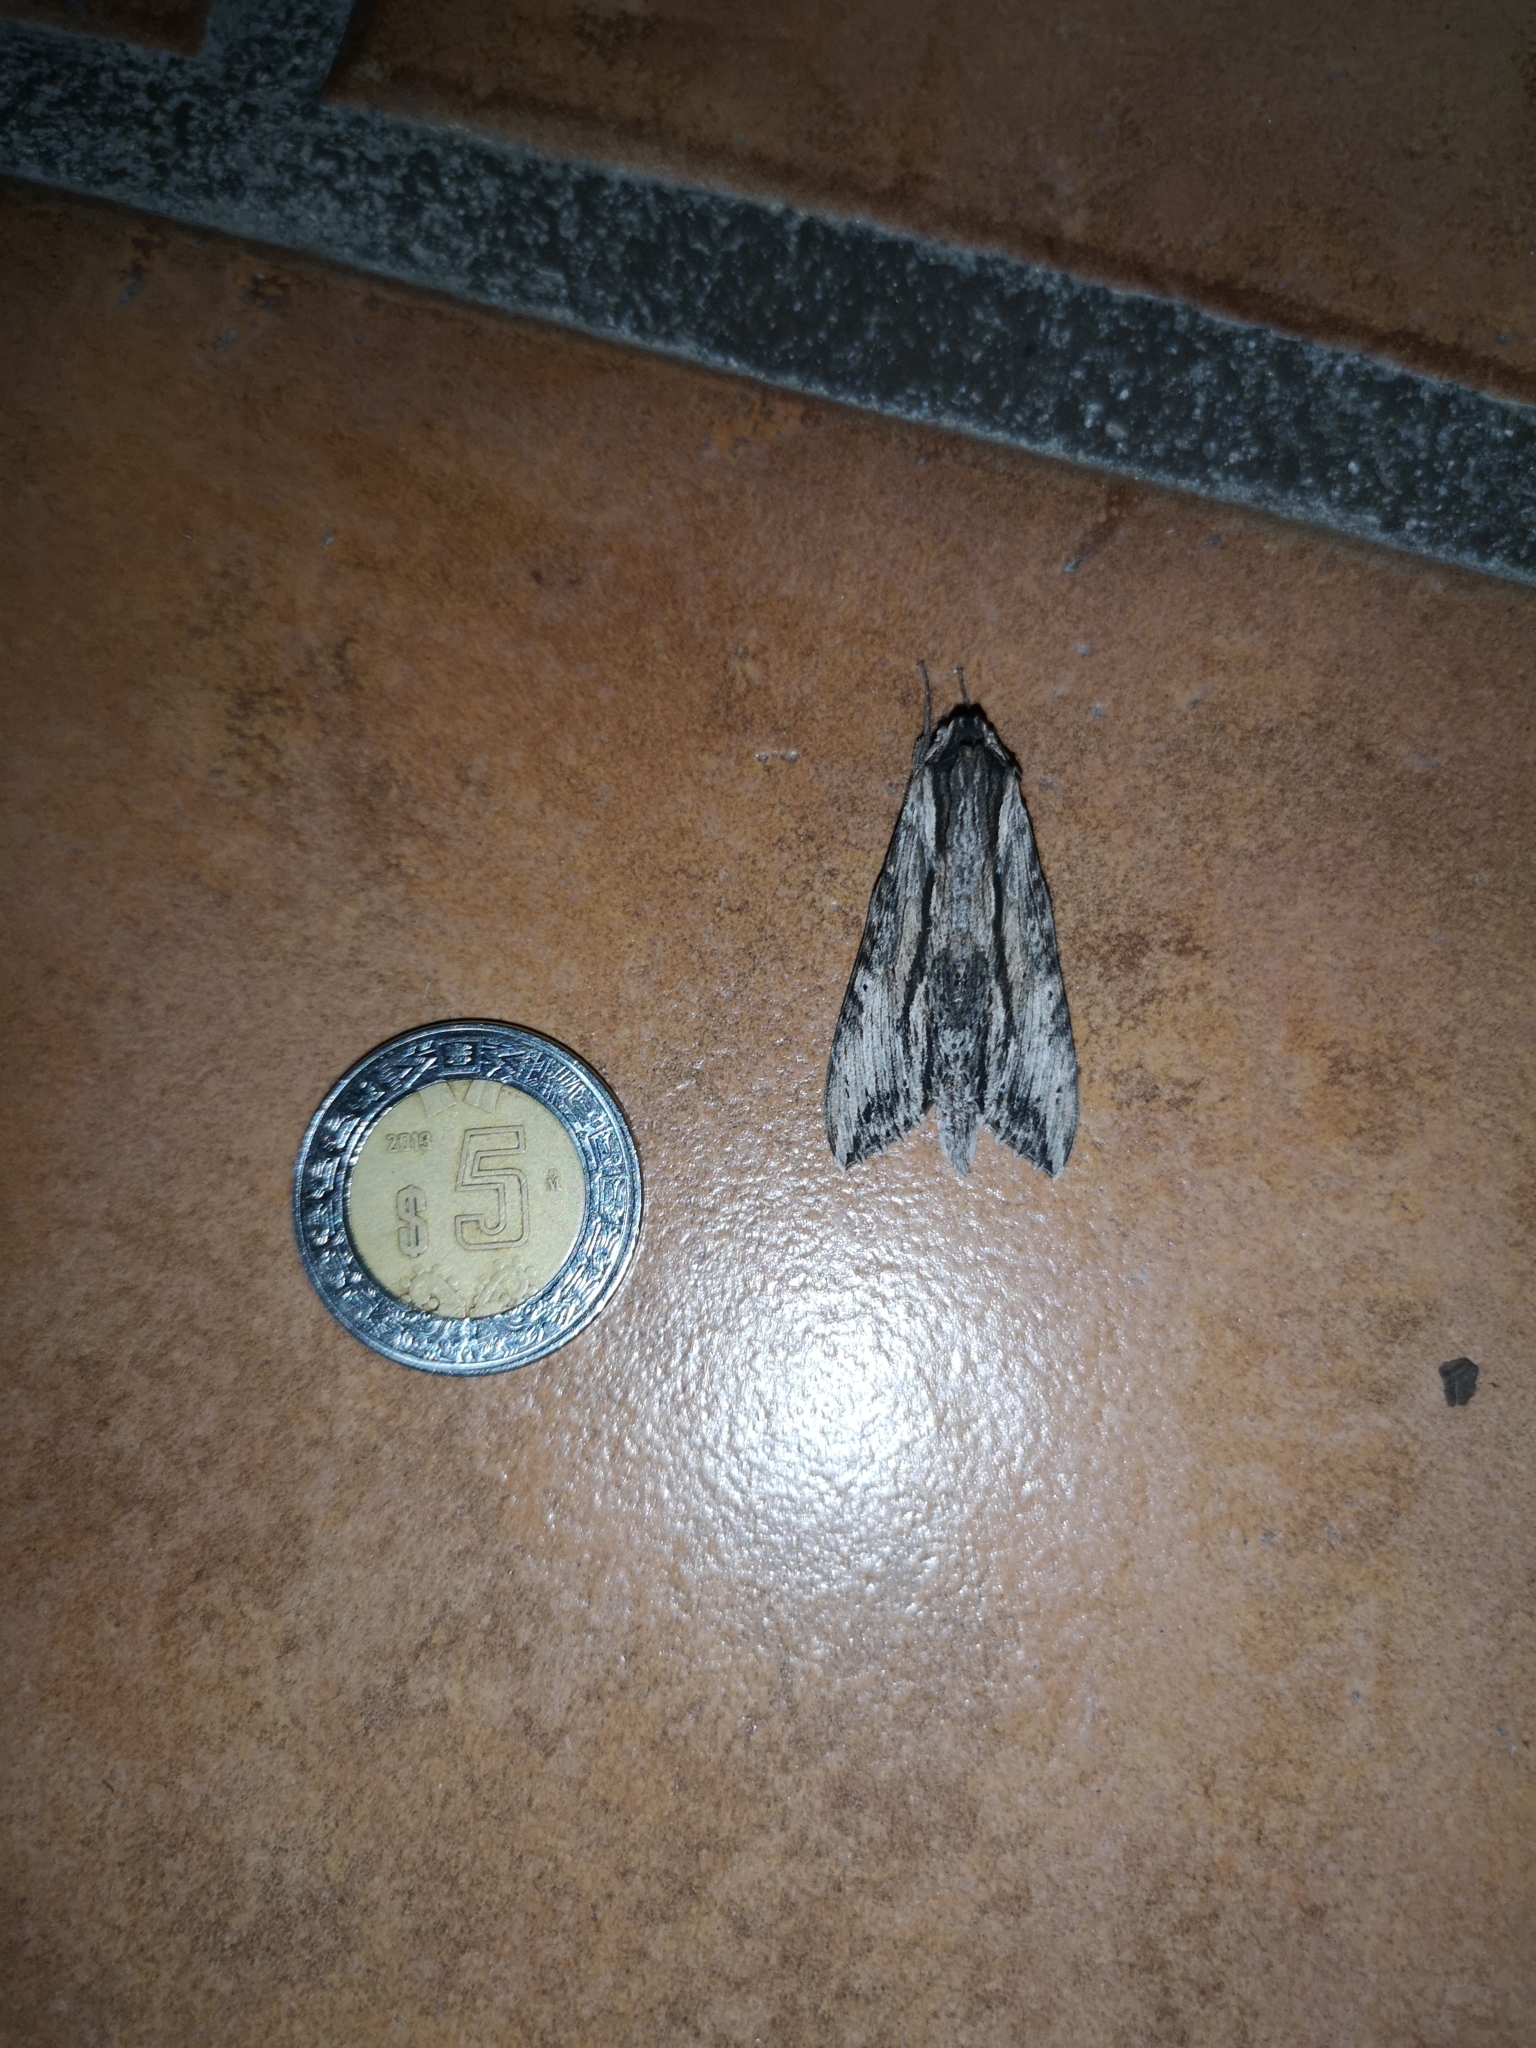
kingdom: Animalia
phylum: Arthropoda
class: Insecta
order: Lepidoptera
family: Sphingidae
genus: Erinnyis
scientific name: Erinnyis obscura
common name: Obscure sphinx
